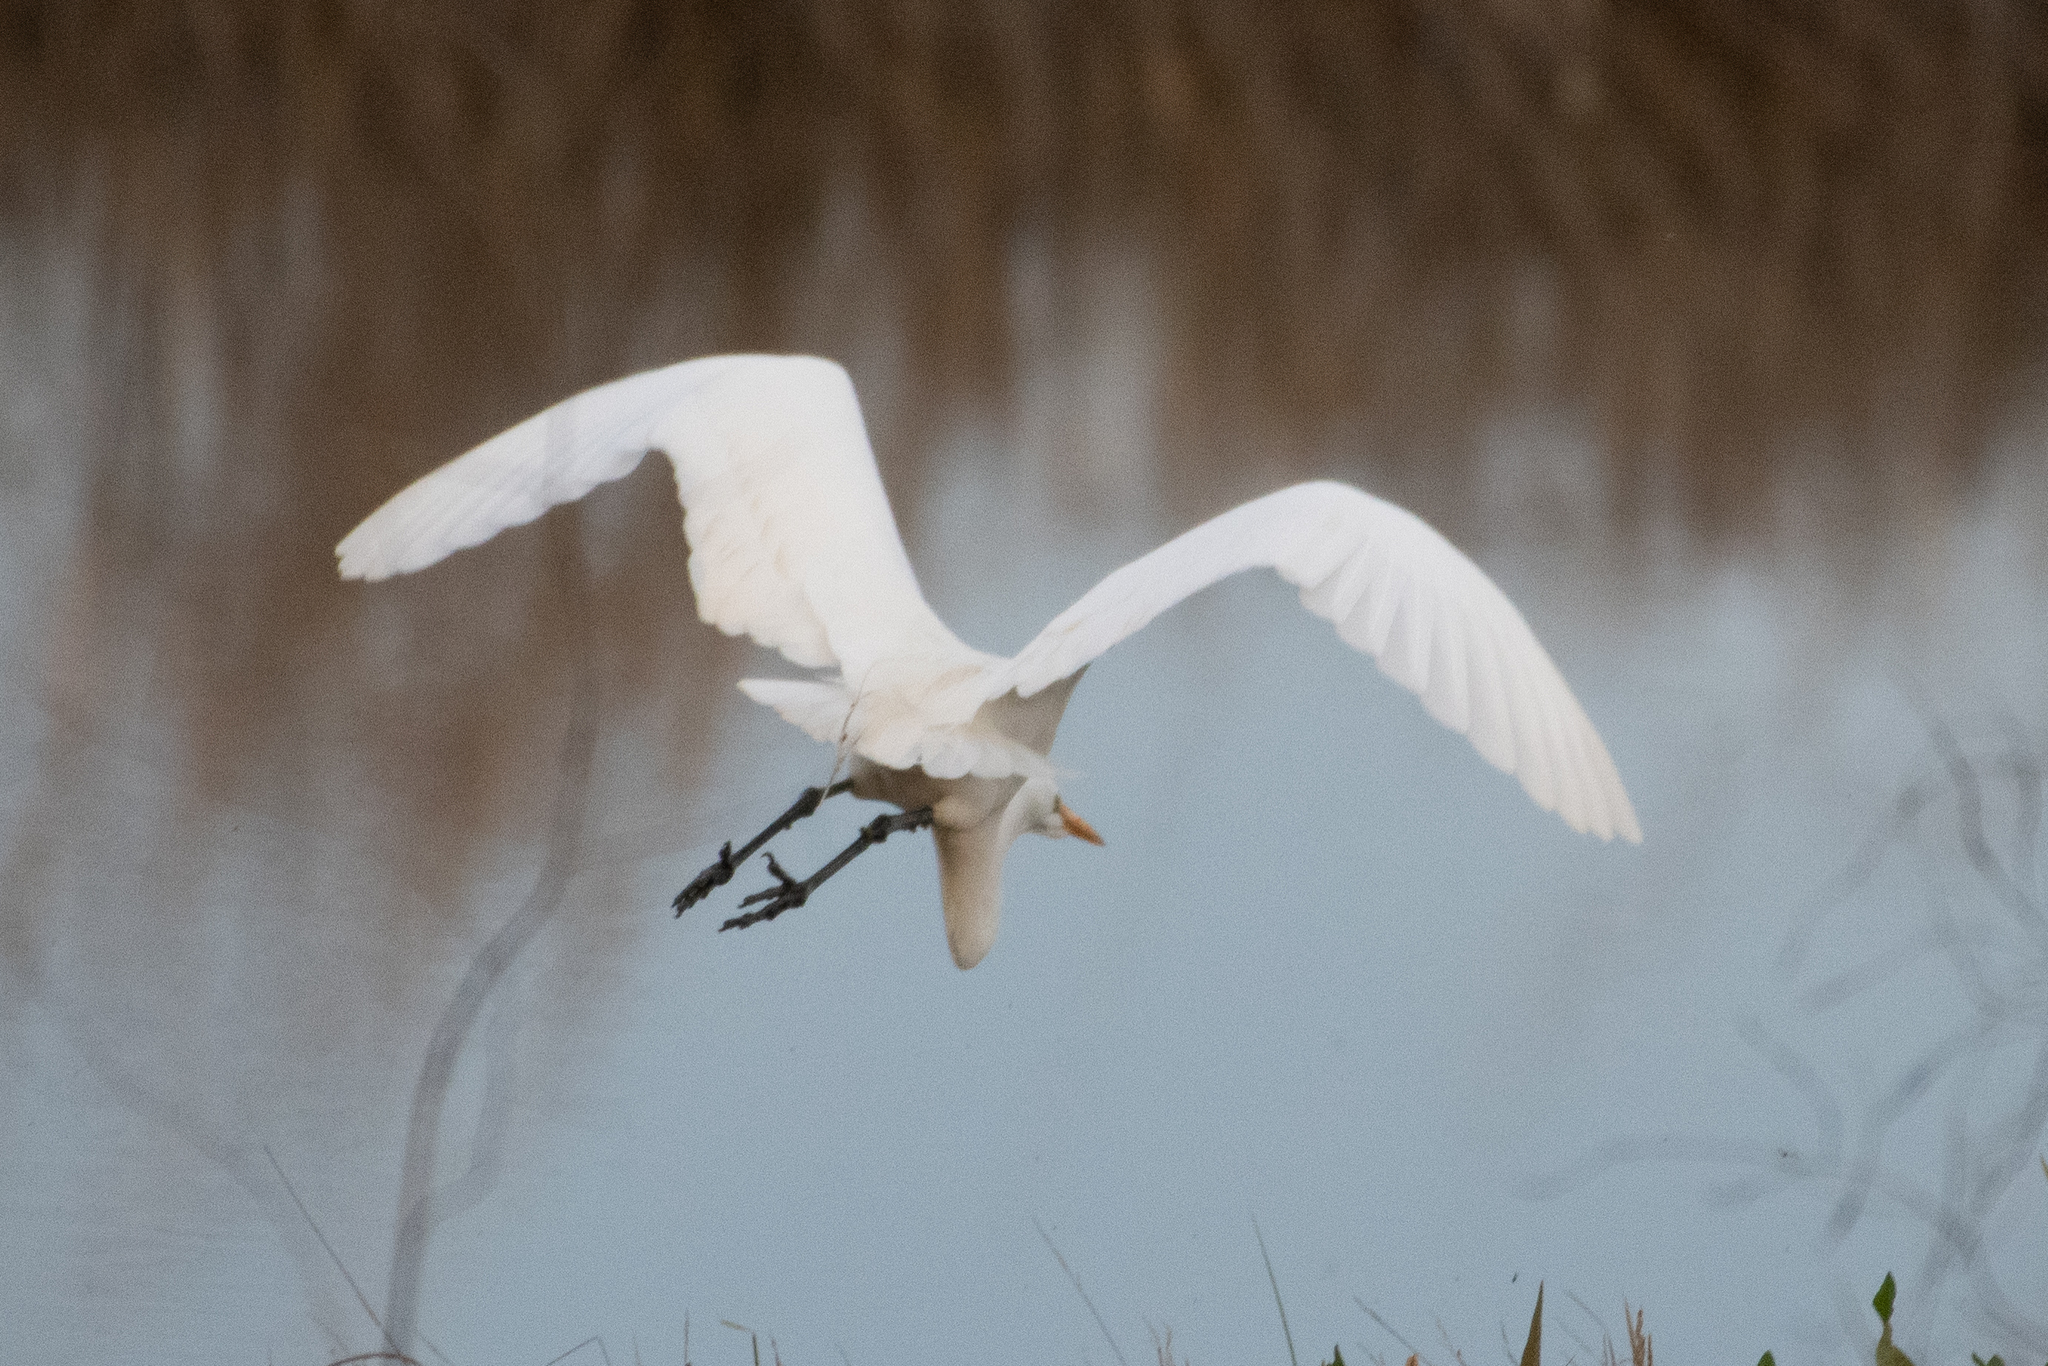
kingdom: Animalia
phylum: Chordata
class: Aves
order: Pelecaniformes
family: Ardeidae
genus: Ardea
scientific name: Ardea alba
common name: Great egret
